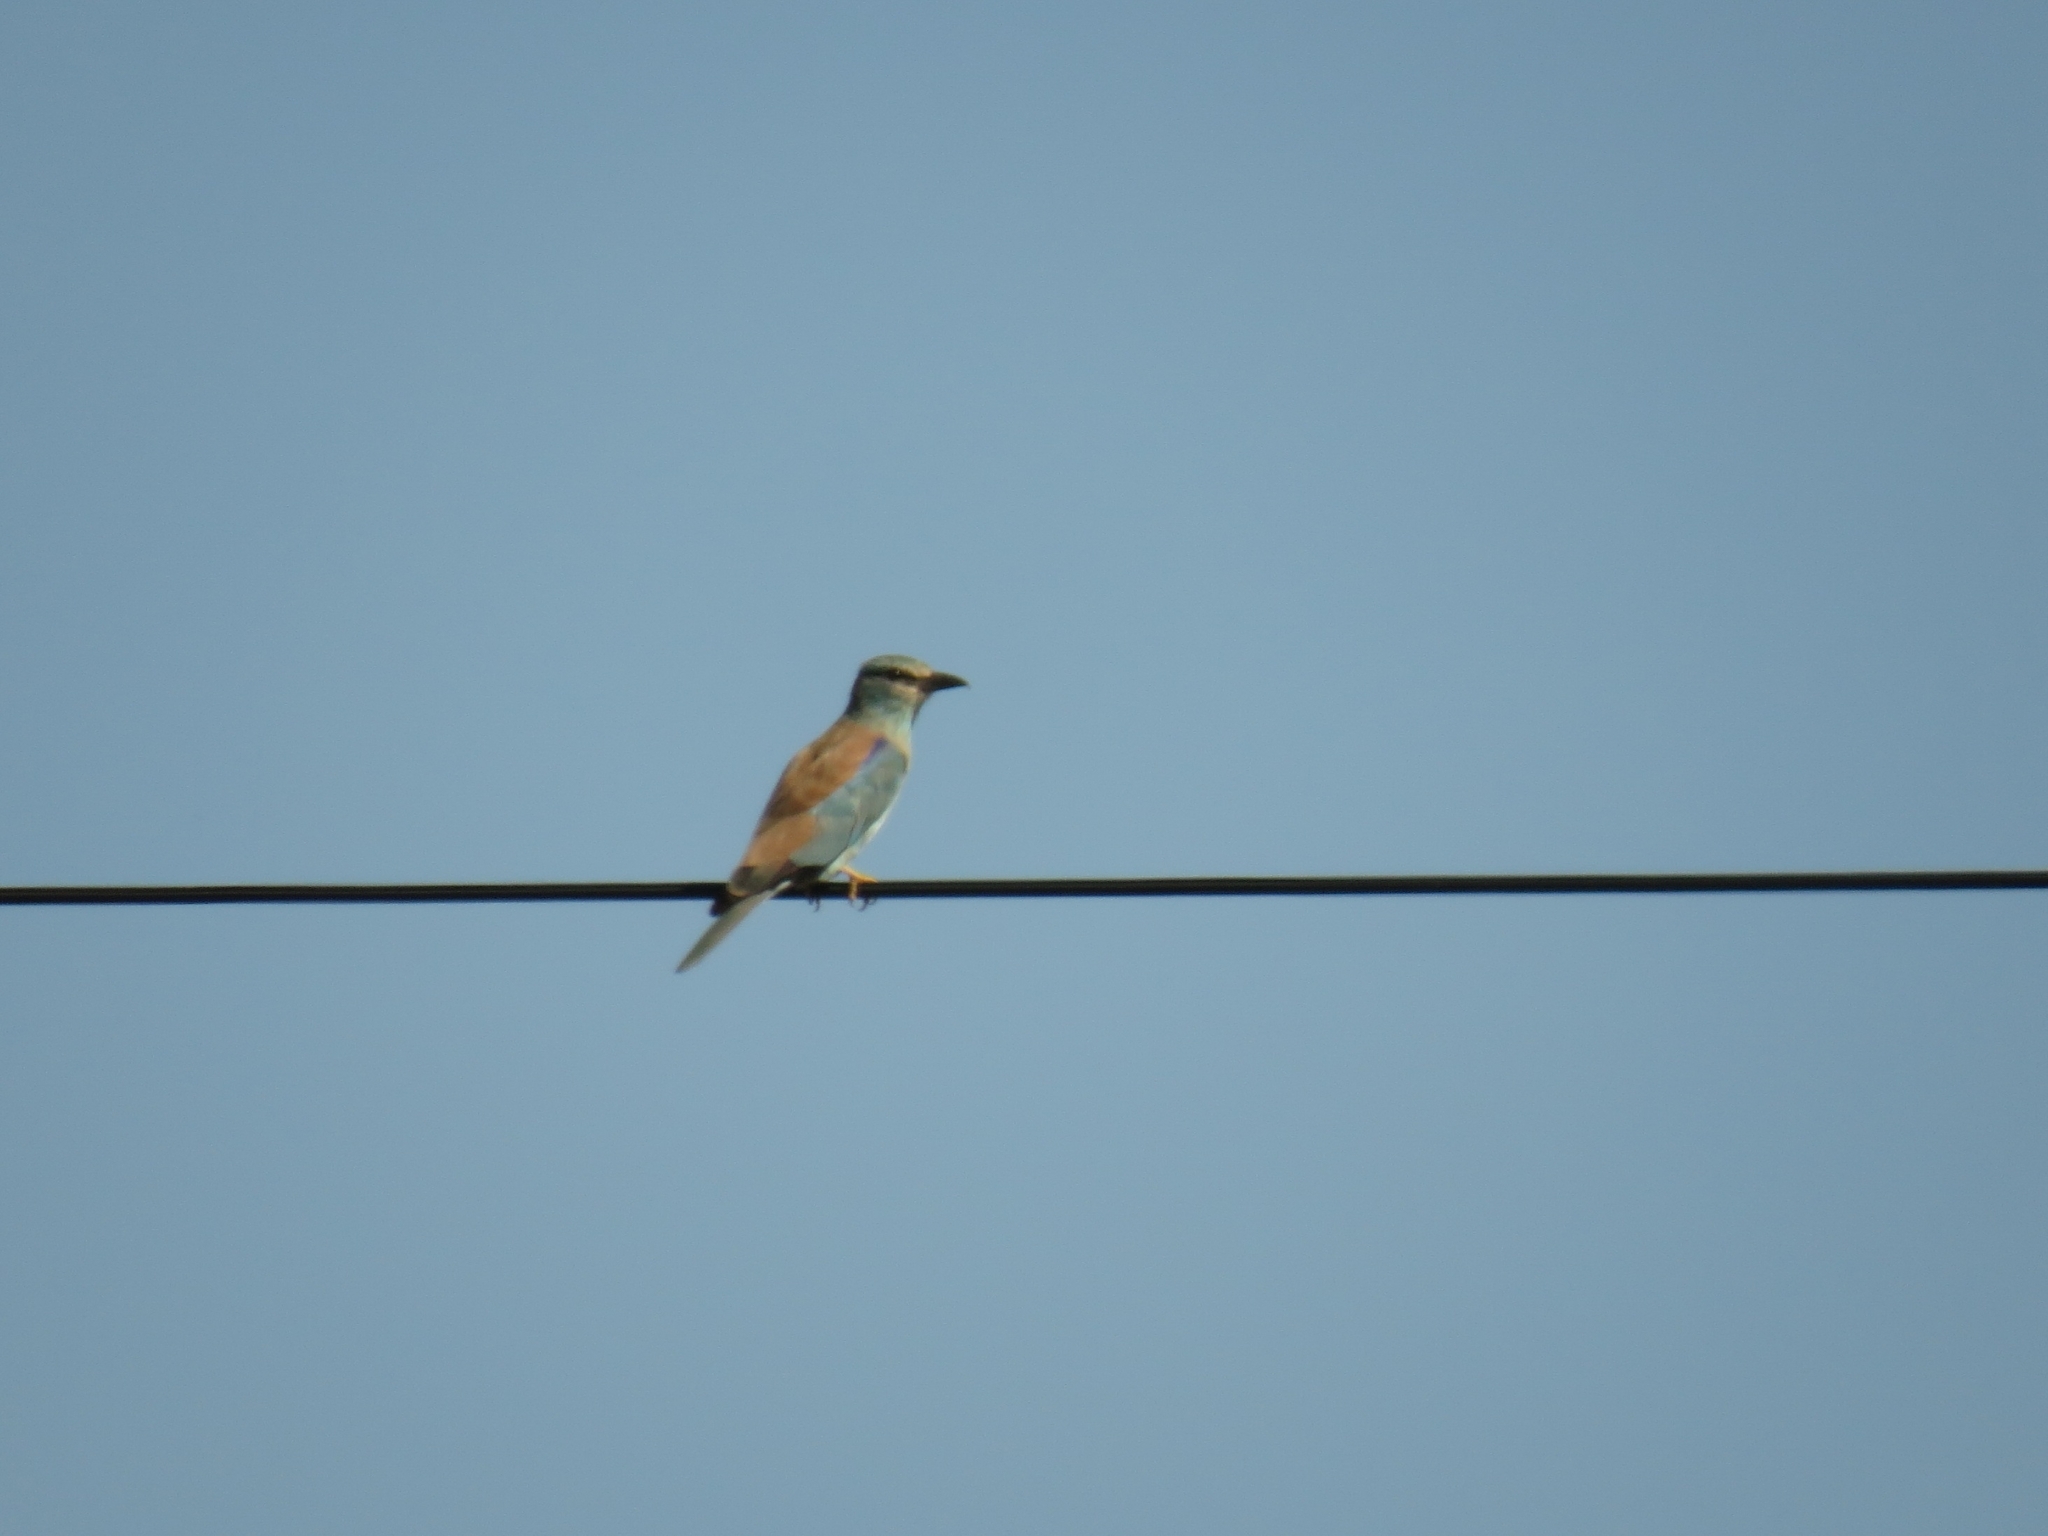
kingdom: Animalia
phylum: Chordata
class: Aves
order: Coraciiformes
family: Coraciidae
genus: Coracias
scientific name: Coracias garrulus
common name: European roller
